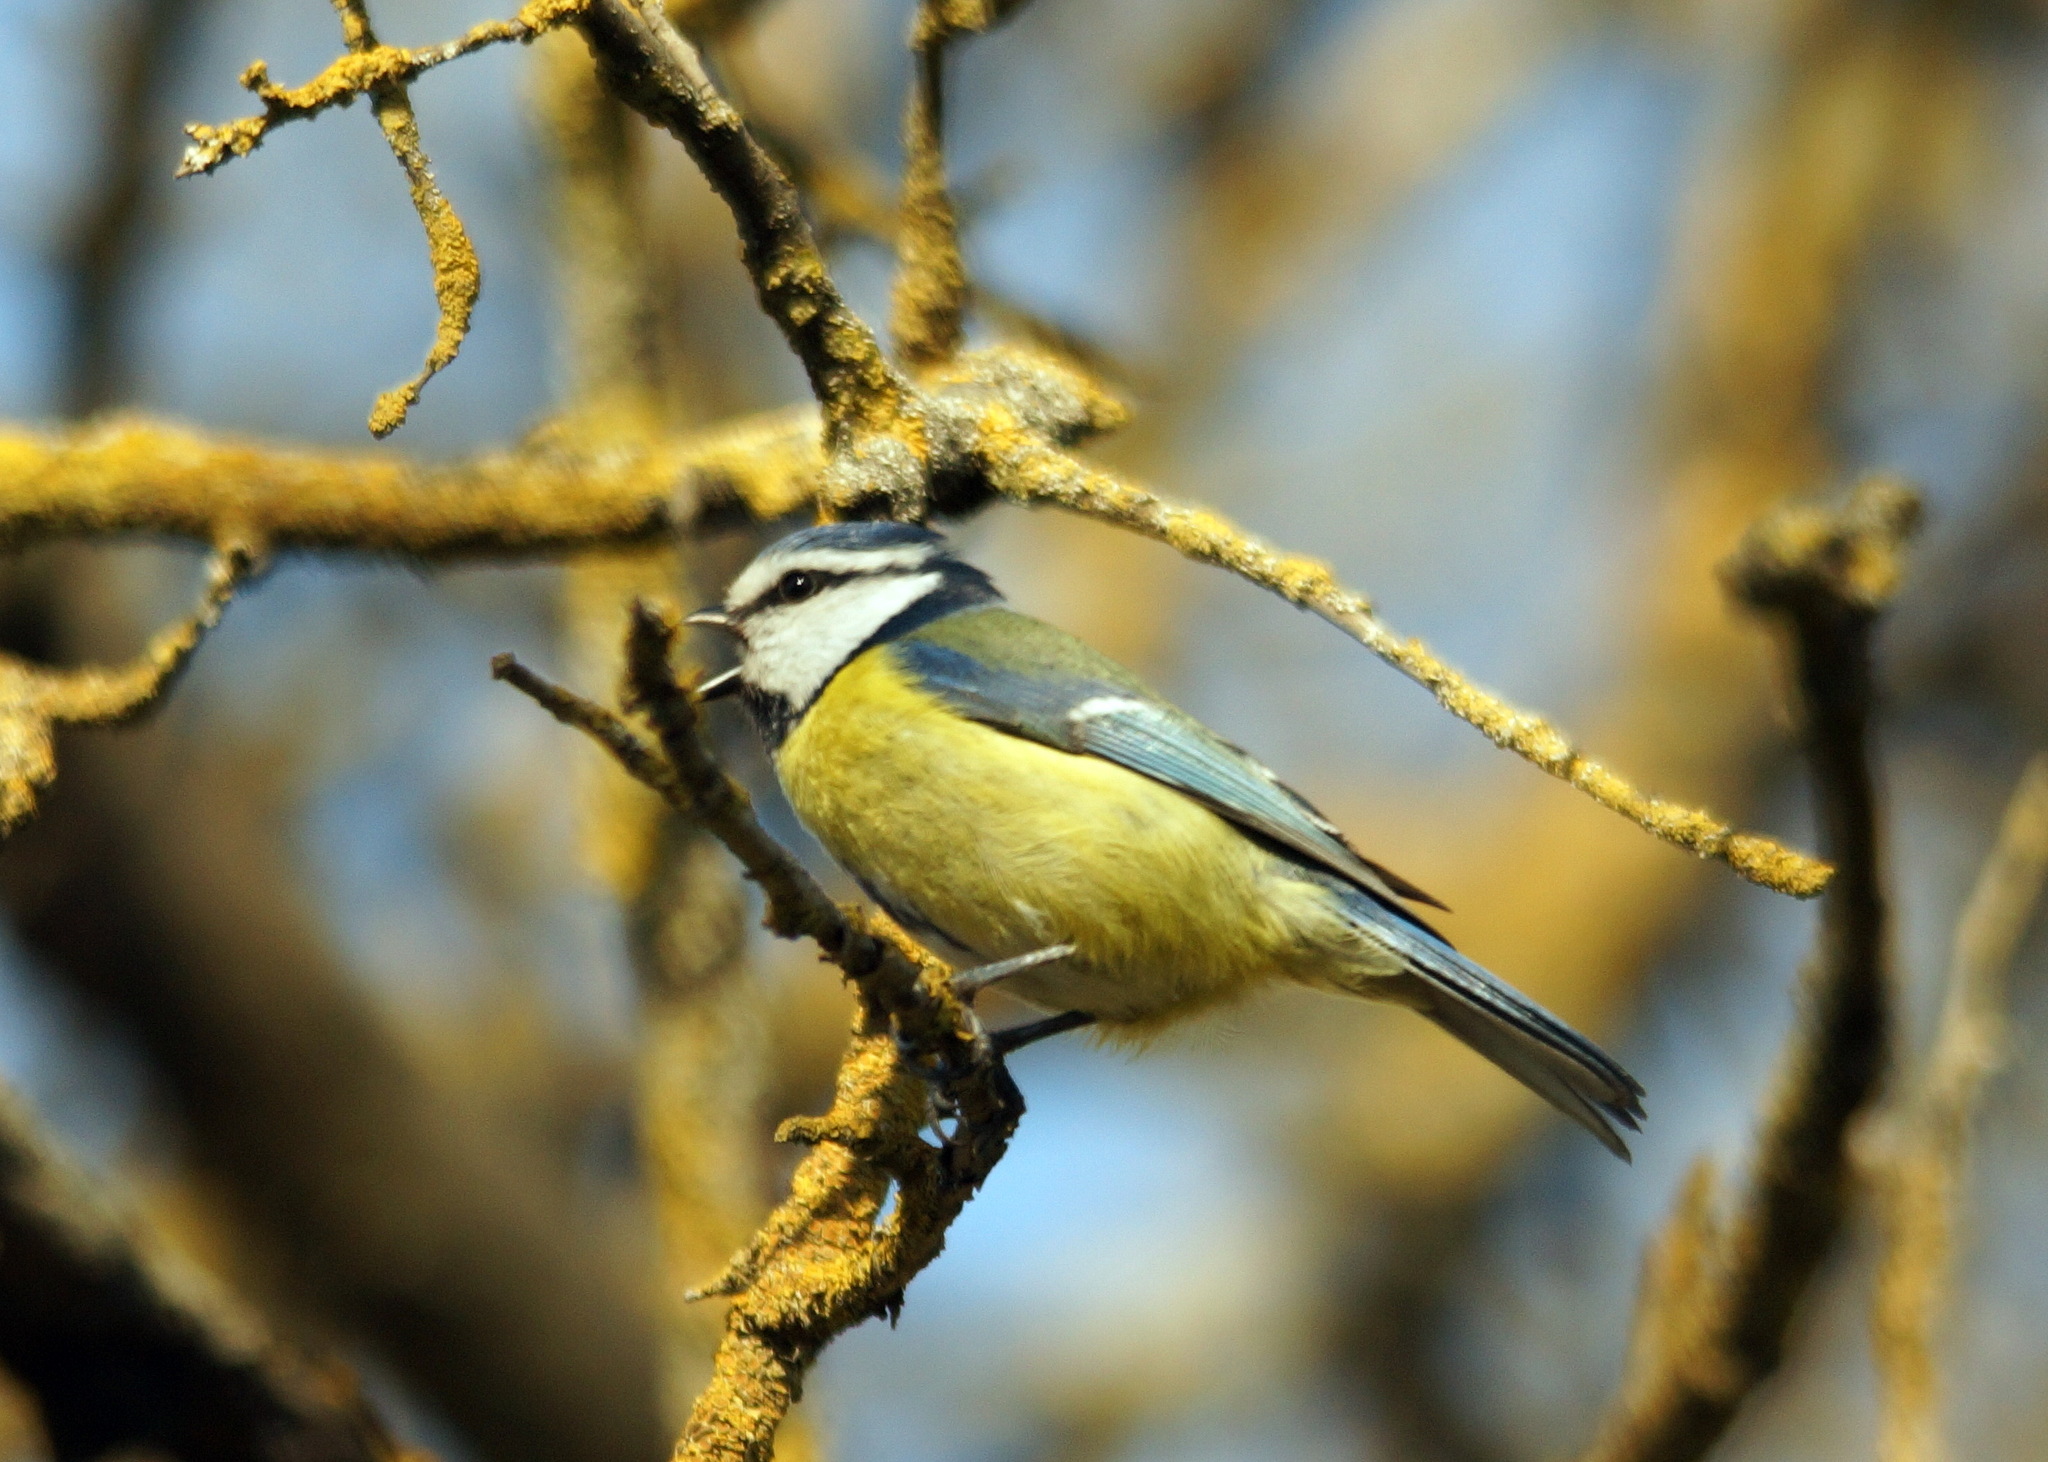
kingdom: Animalia
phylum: Chordata
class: Aves
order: Passeriformes
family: Paridae
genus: Cyanistes
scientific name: Cyanistes caeruleus
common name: Eurasian blue tit
